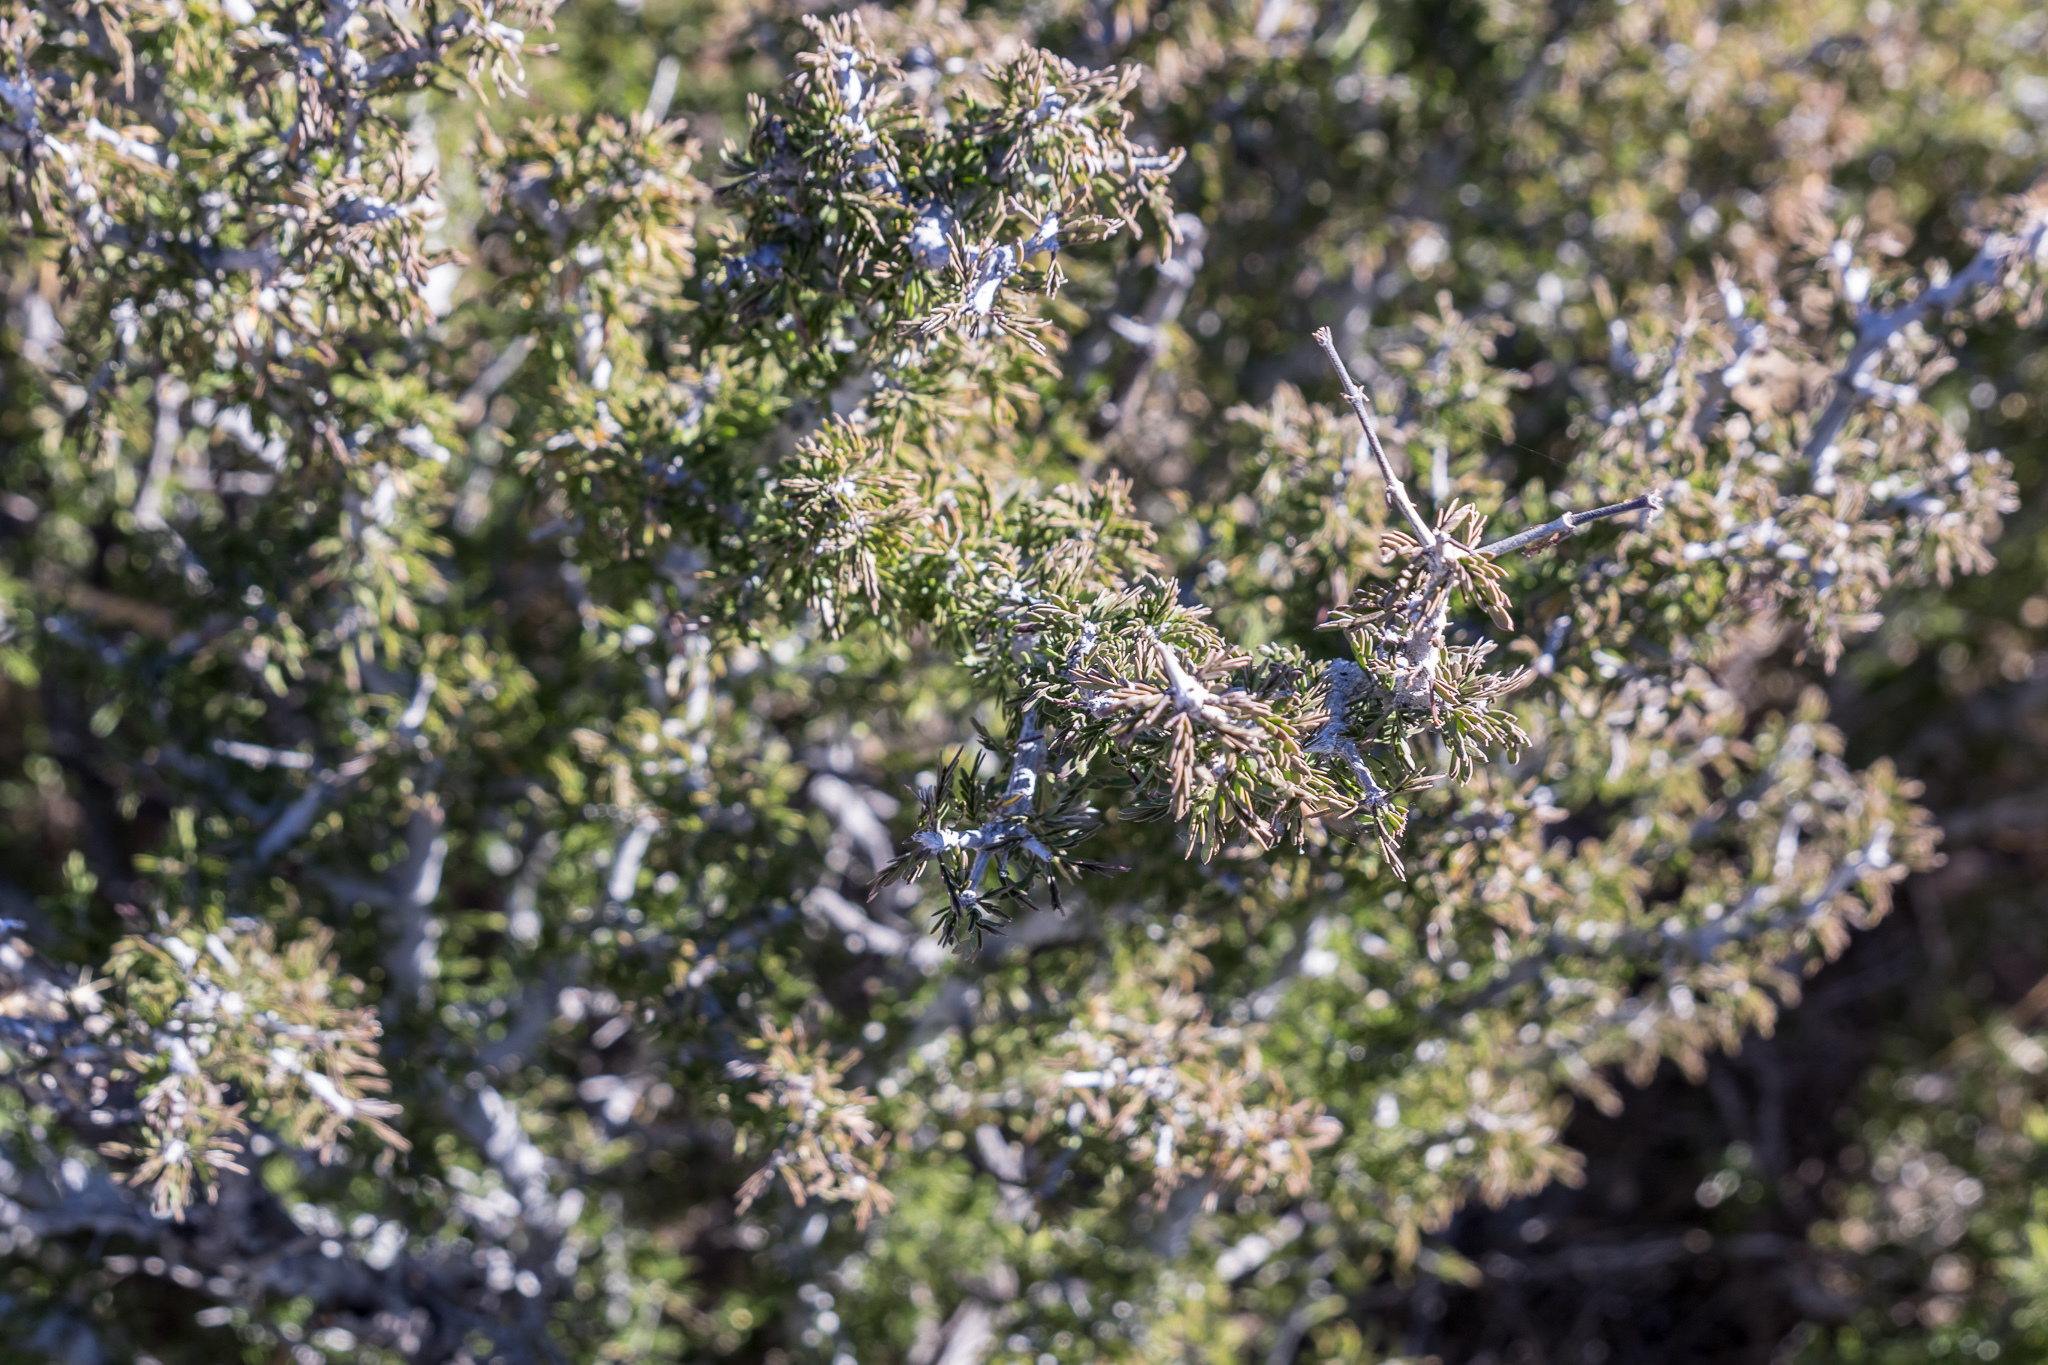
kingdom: Plantae
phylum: Tracheophyta
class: Magnoliopsida
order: Zygophyllales
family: Zygophyllaceae
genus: Porlieria
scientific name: Porlieria angustifolia
